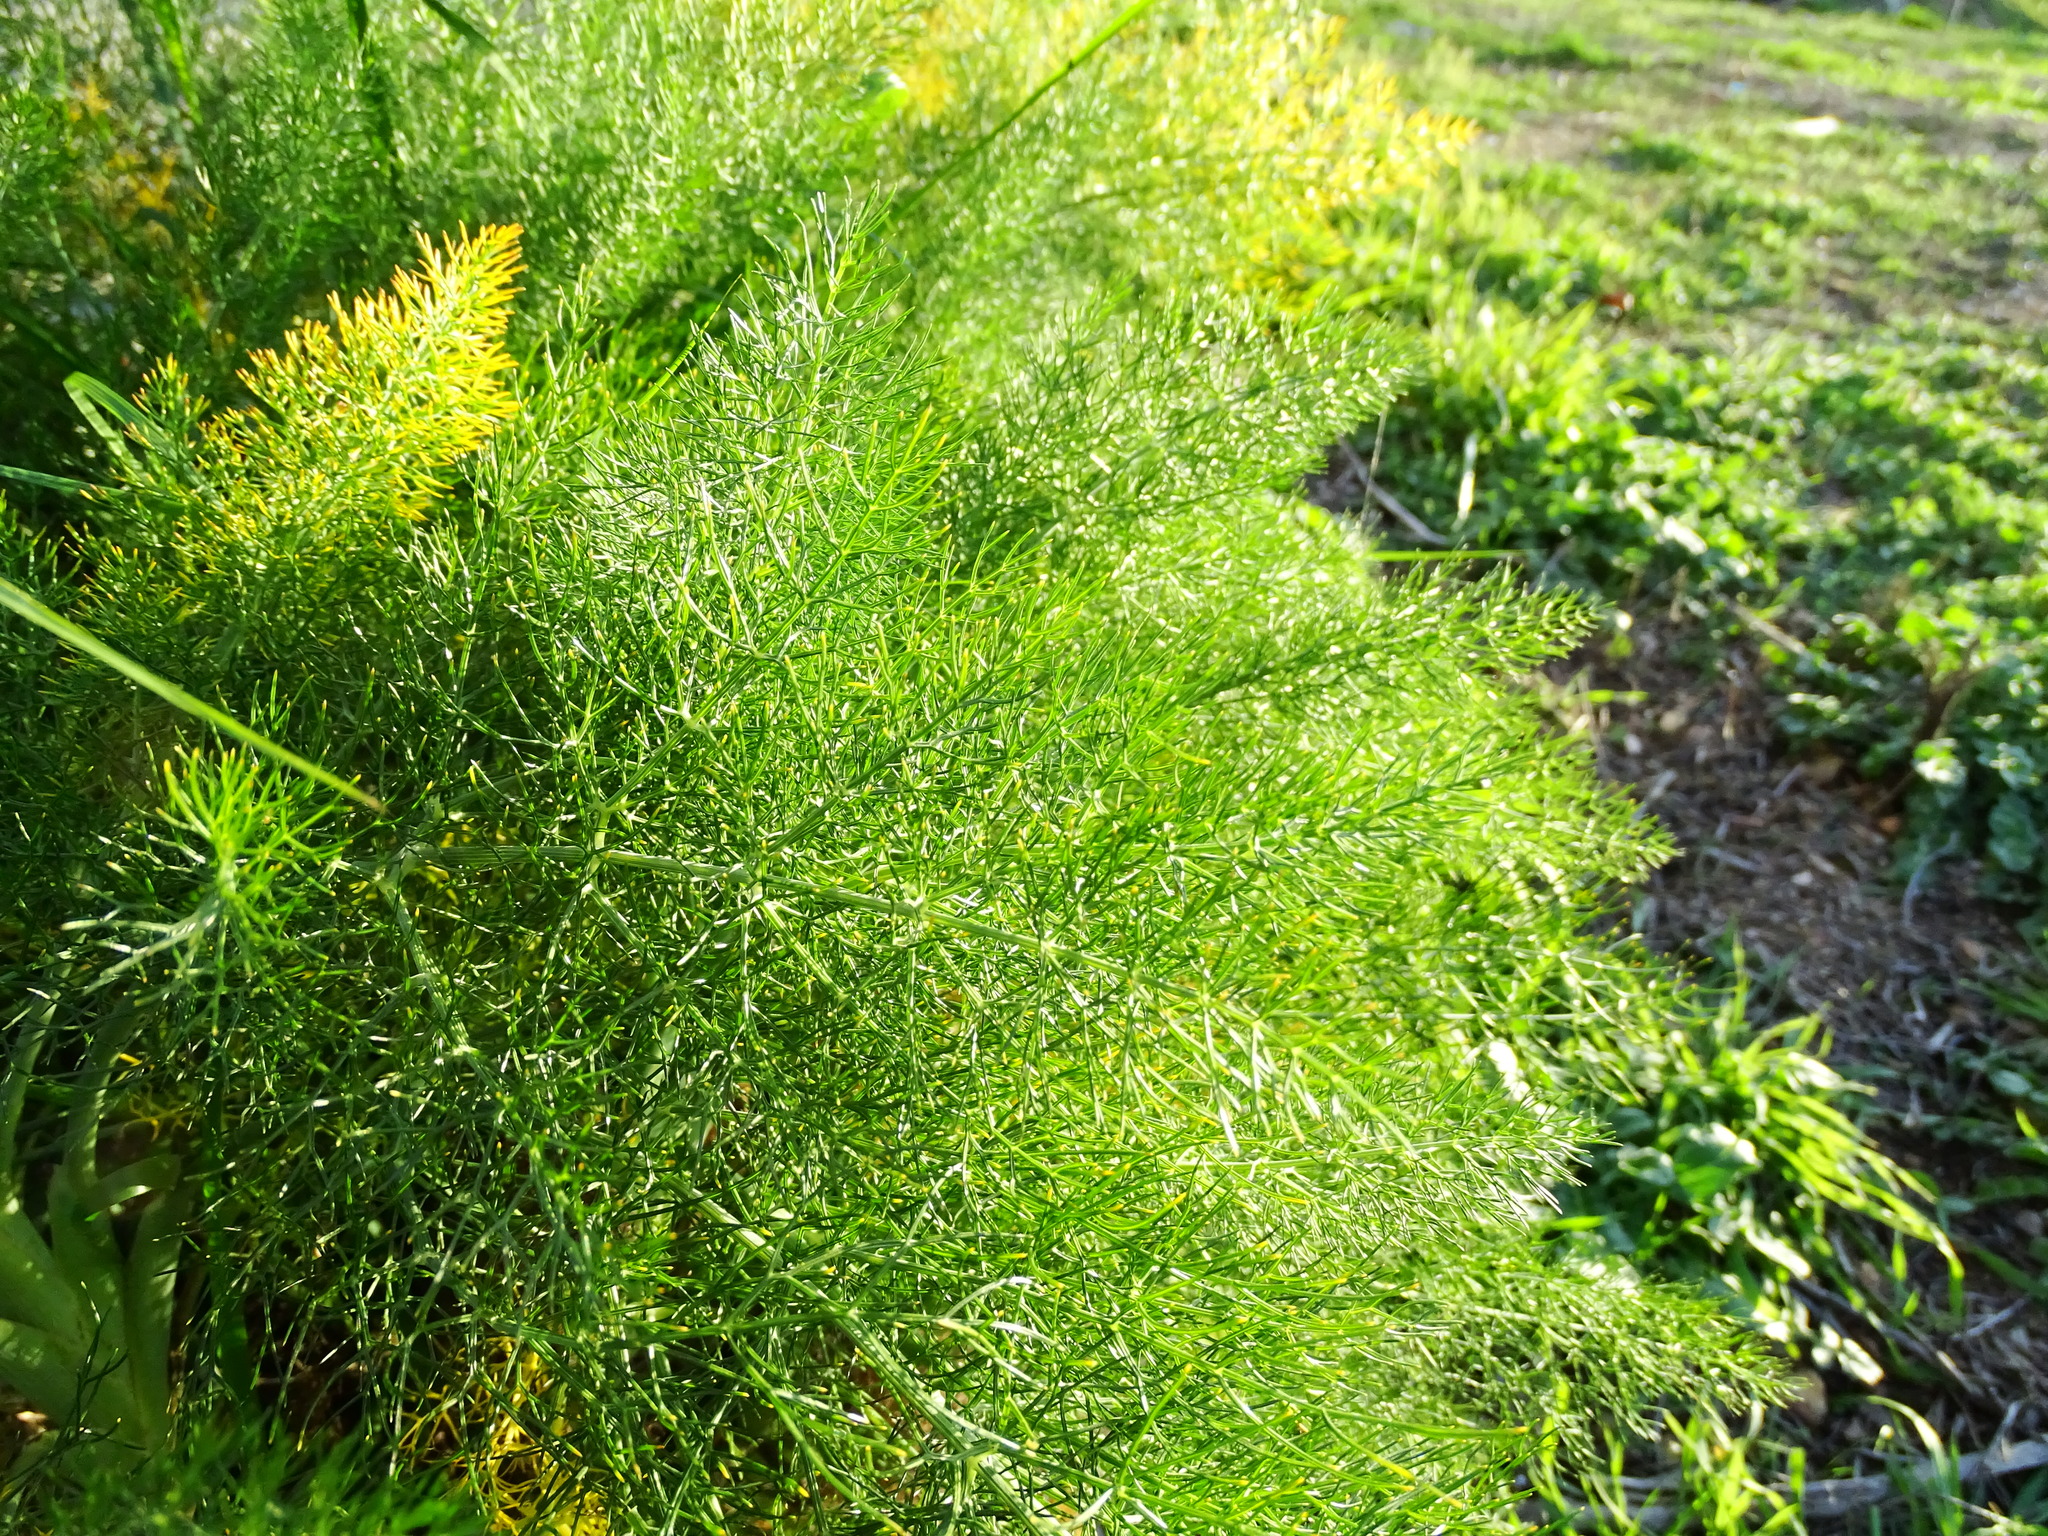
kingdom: Plantae
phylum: Tracheophyta
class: Magnoliopsida
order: Apiales
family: Apiaceae
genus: Foeniculum
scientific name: Foeniculum vulgare
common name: Fennel
